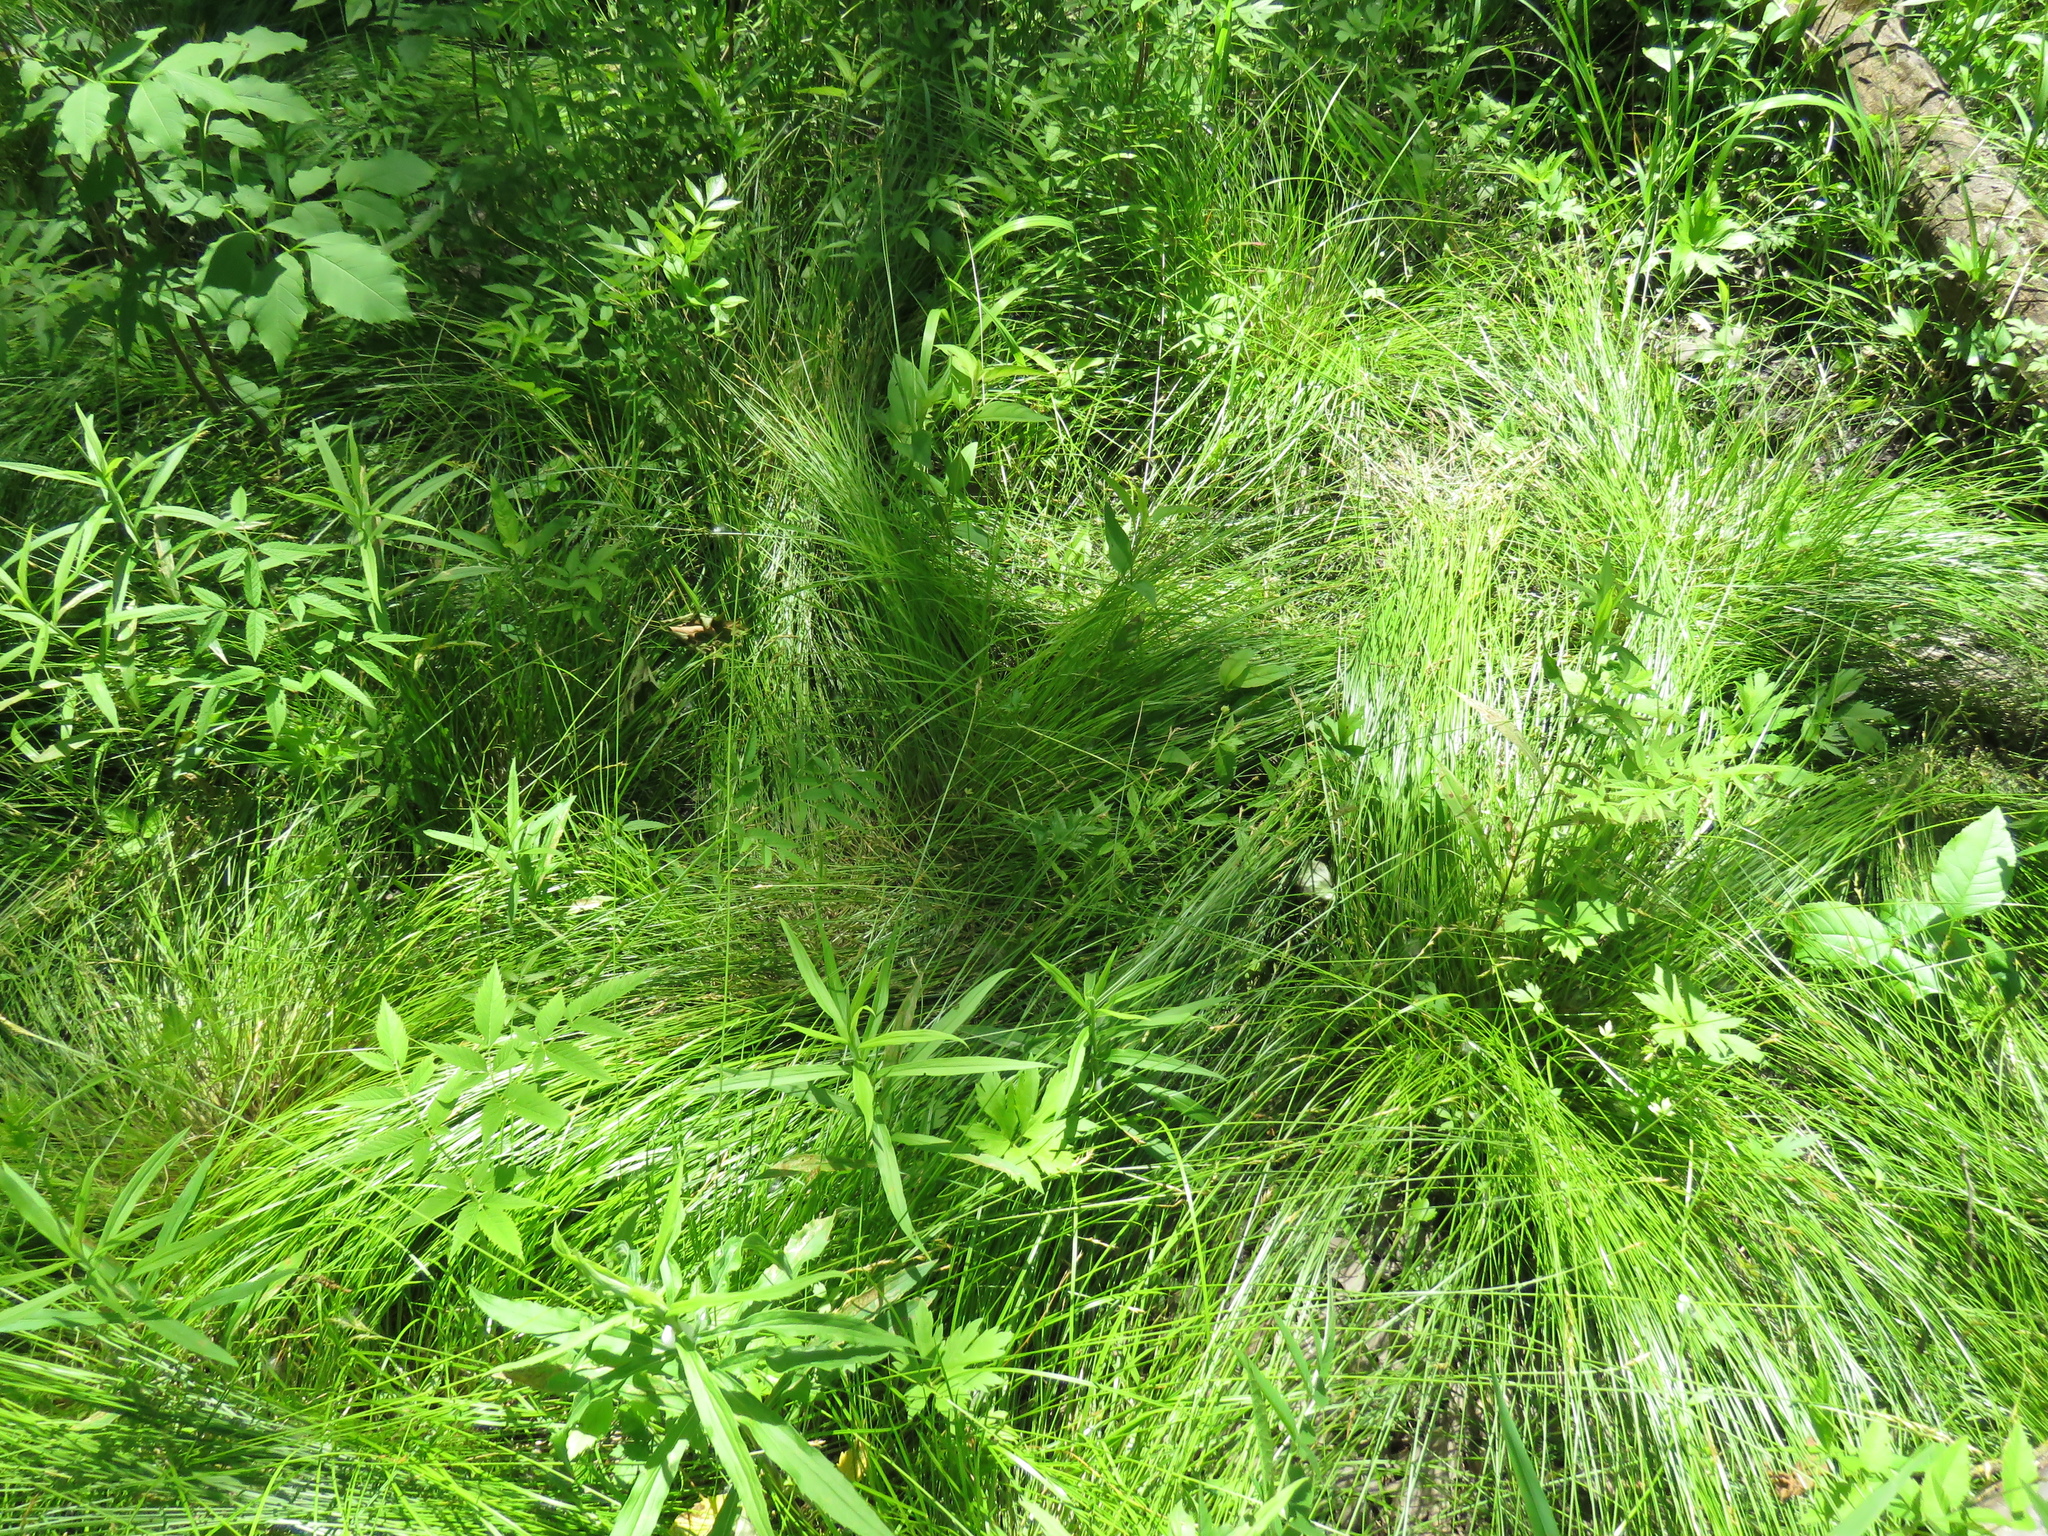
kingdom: Plantae
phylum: Tracheophyta
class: Liliopsida
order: Poales
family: Cyperaceae
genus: Carex
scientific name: Carex bromoides
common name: Brome hummock sedge
